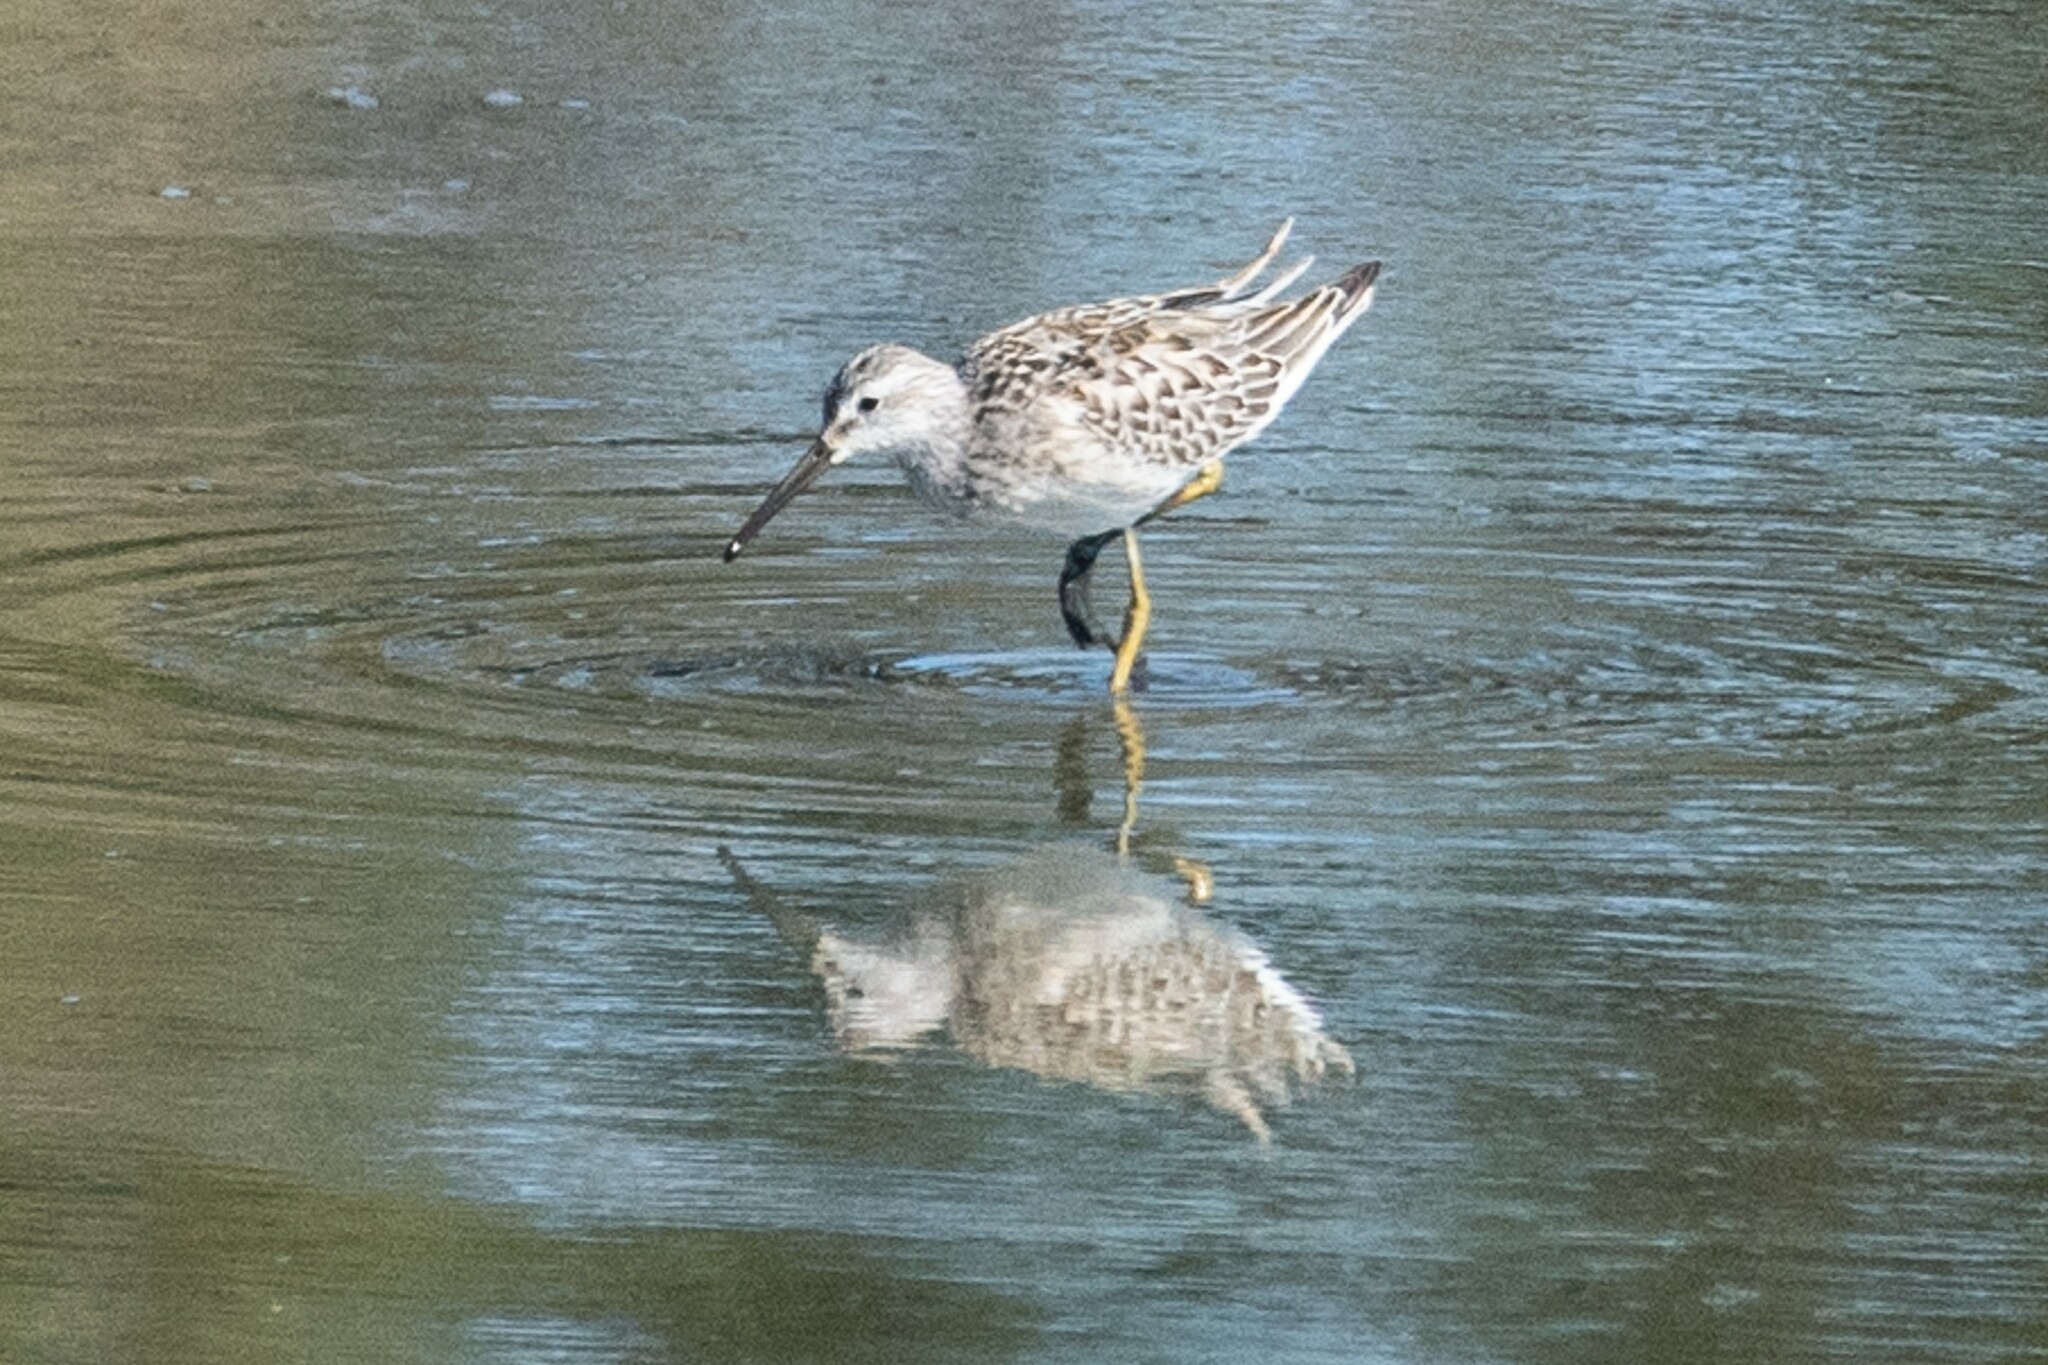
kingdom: Animalia
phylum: Chordata
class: Aves
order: Charadriiformes
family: Scolopacidae
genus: Calidris
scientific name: Calidris himantopus
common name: Stilt sandpiper
